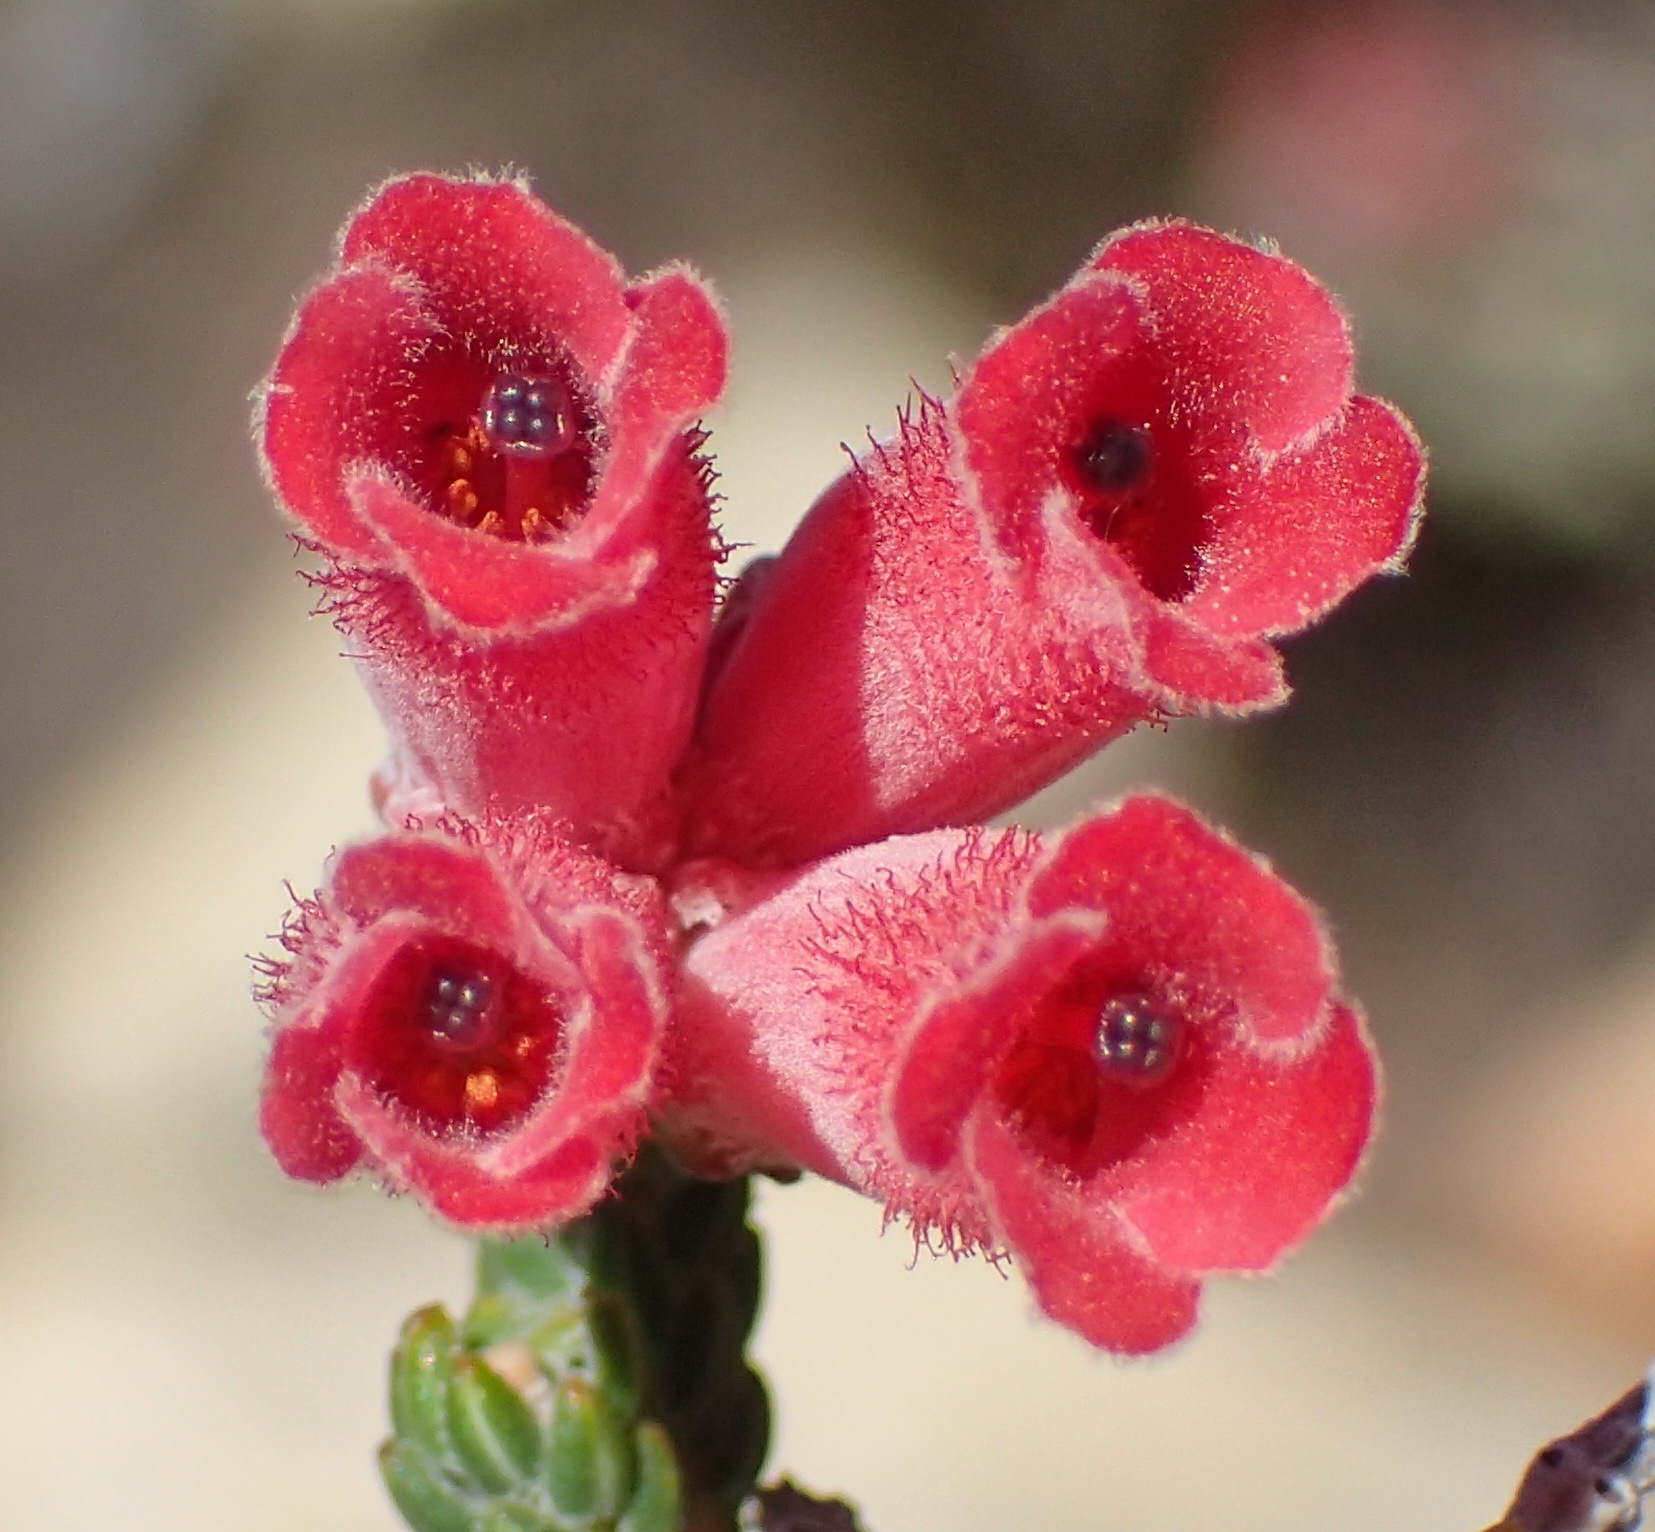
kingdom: Plantae
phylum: Tracheophyta
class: Magnoliopsida
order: Ericales
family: Ericaceae
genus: Erica
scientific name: Erica strigilifolia
